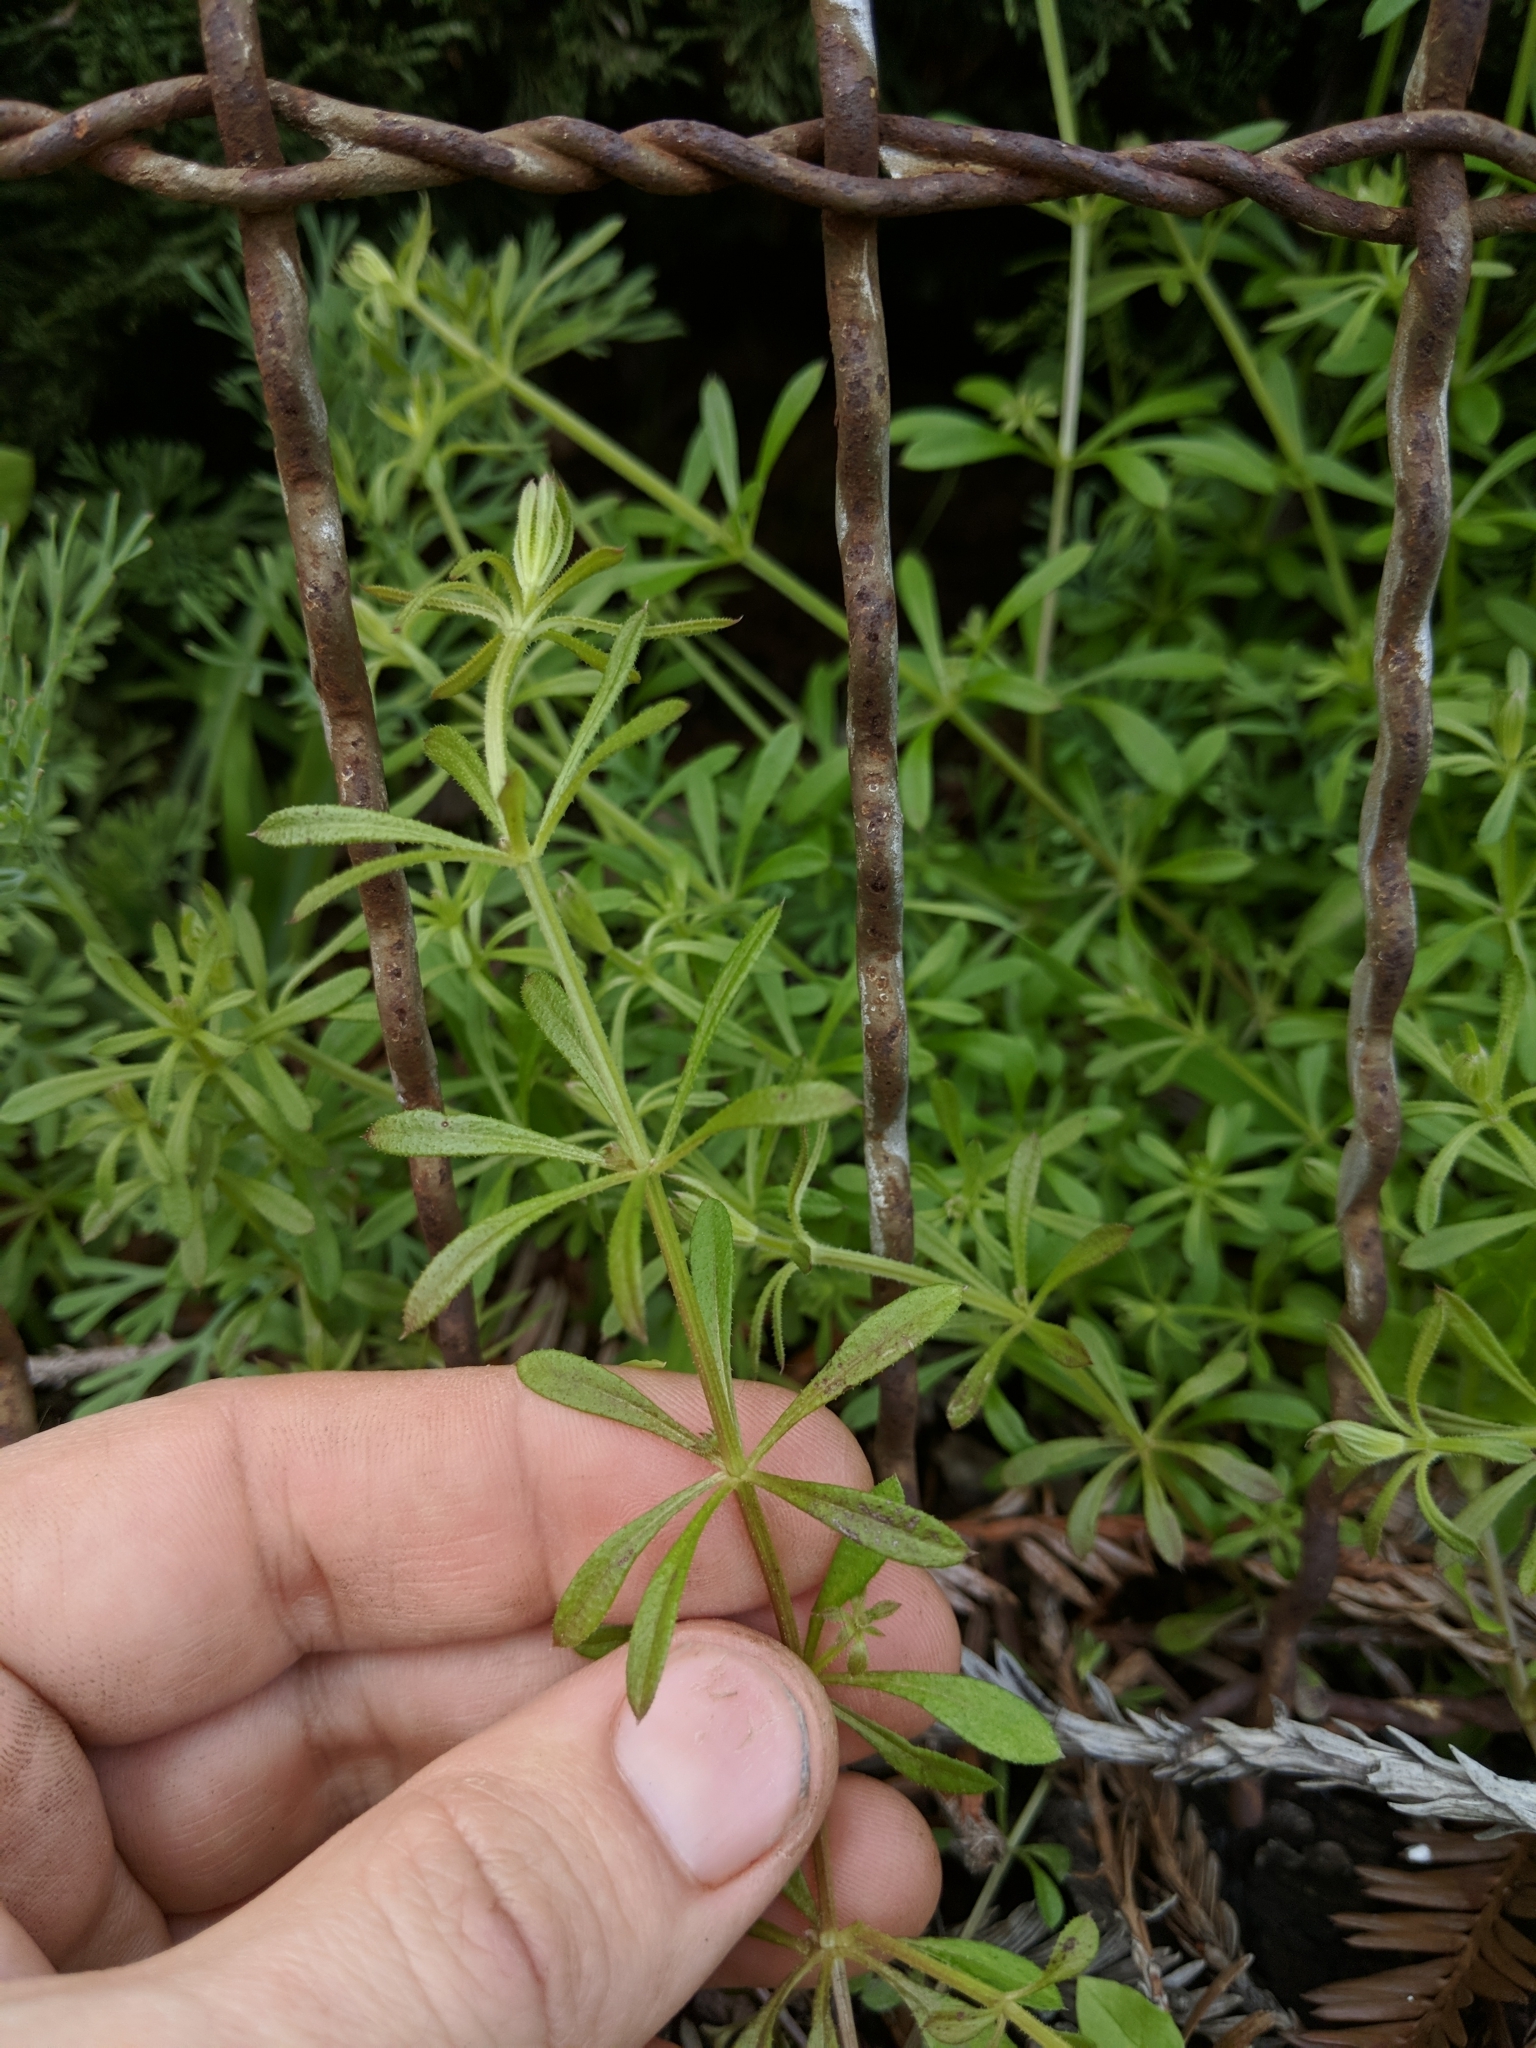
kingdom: Plantae
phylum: Tracheophyta
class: Magnoliopsida
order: Gentianales
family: Rubiaceae
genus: Galium
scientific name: Galium aparine
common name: Cleavers
